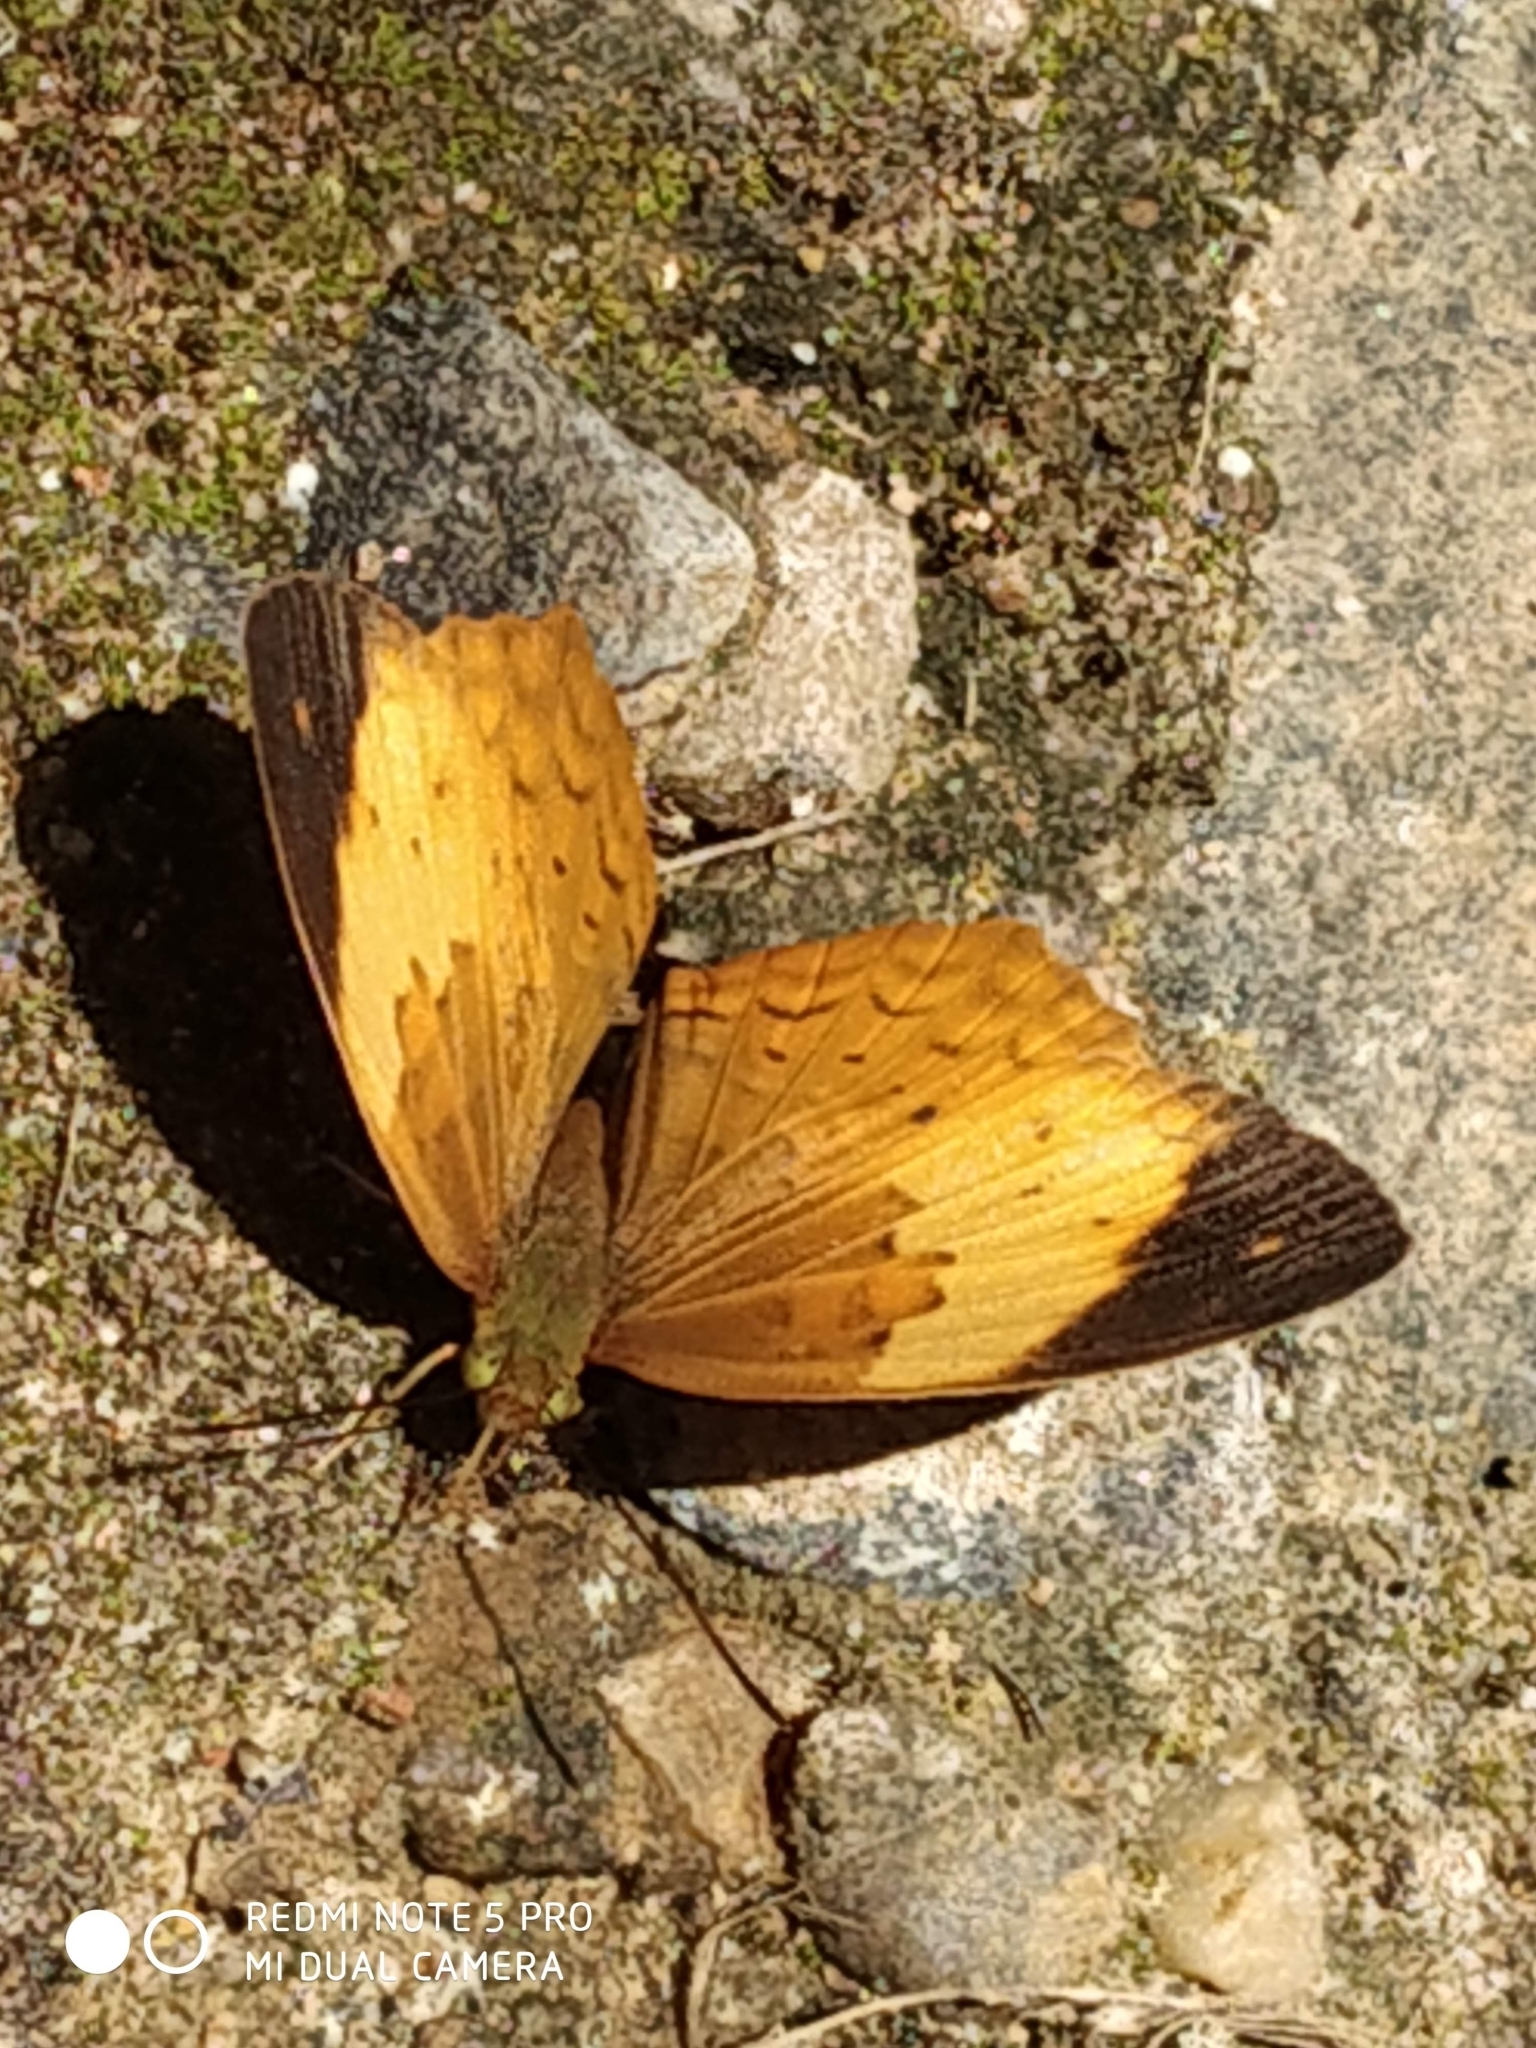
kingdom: Animalia
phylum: Arthropoda
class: Insecta
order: Lepidoptera
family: Nymphalidae
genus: Cupha
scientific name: Cupha erymanthis
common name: Rustic
